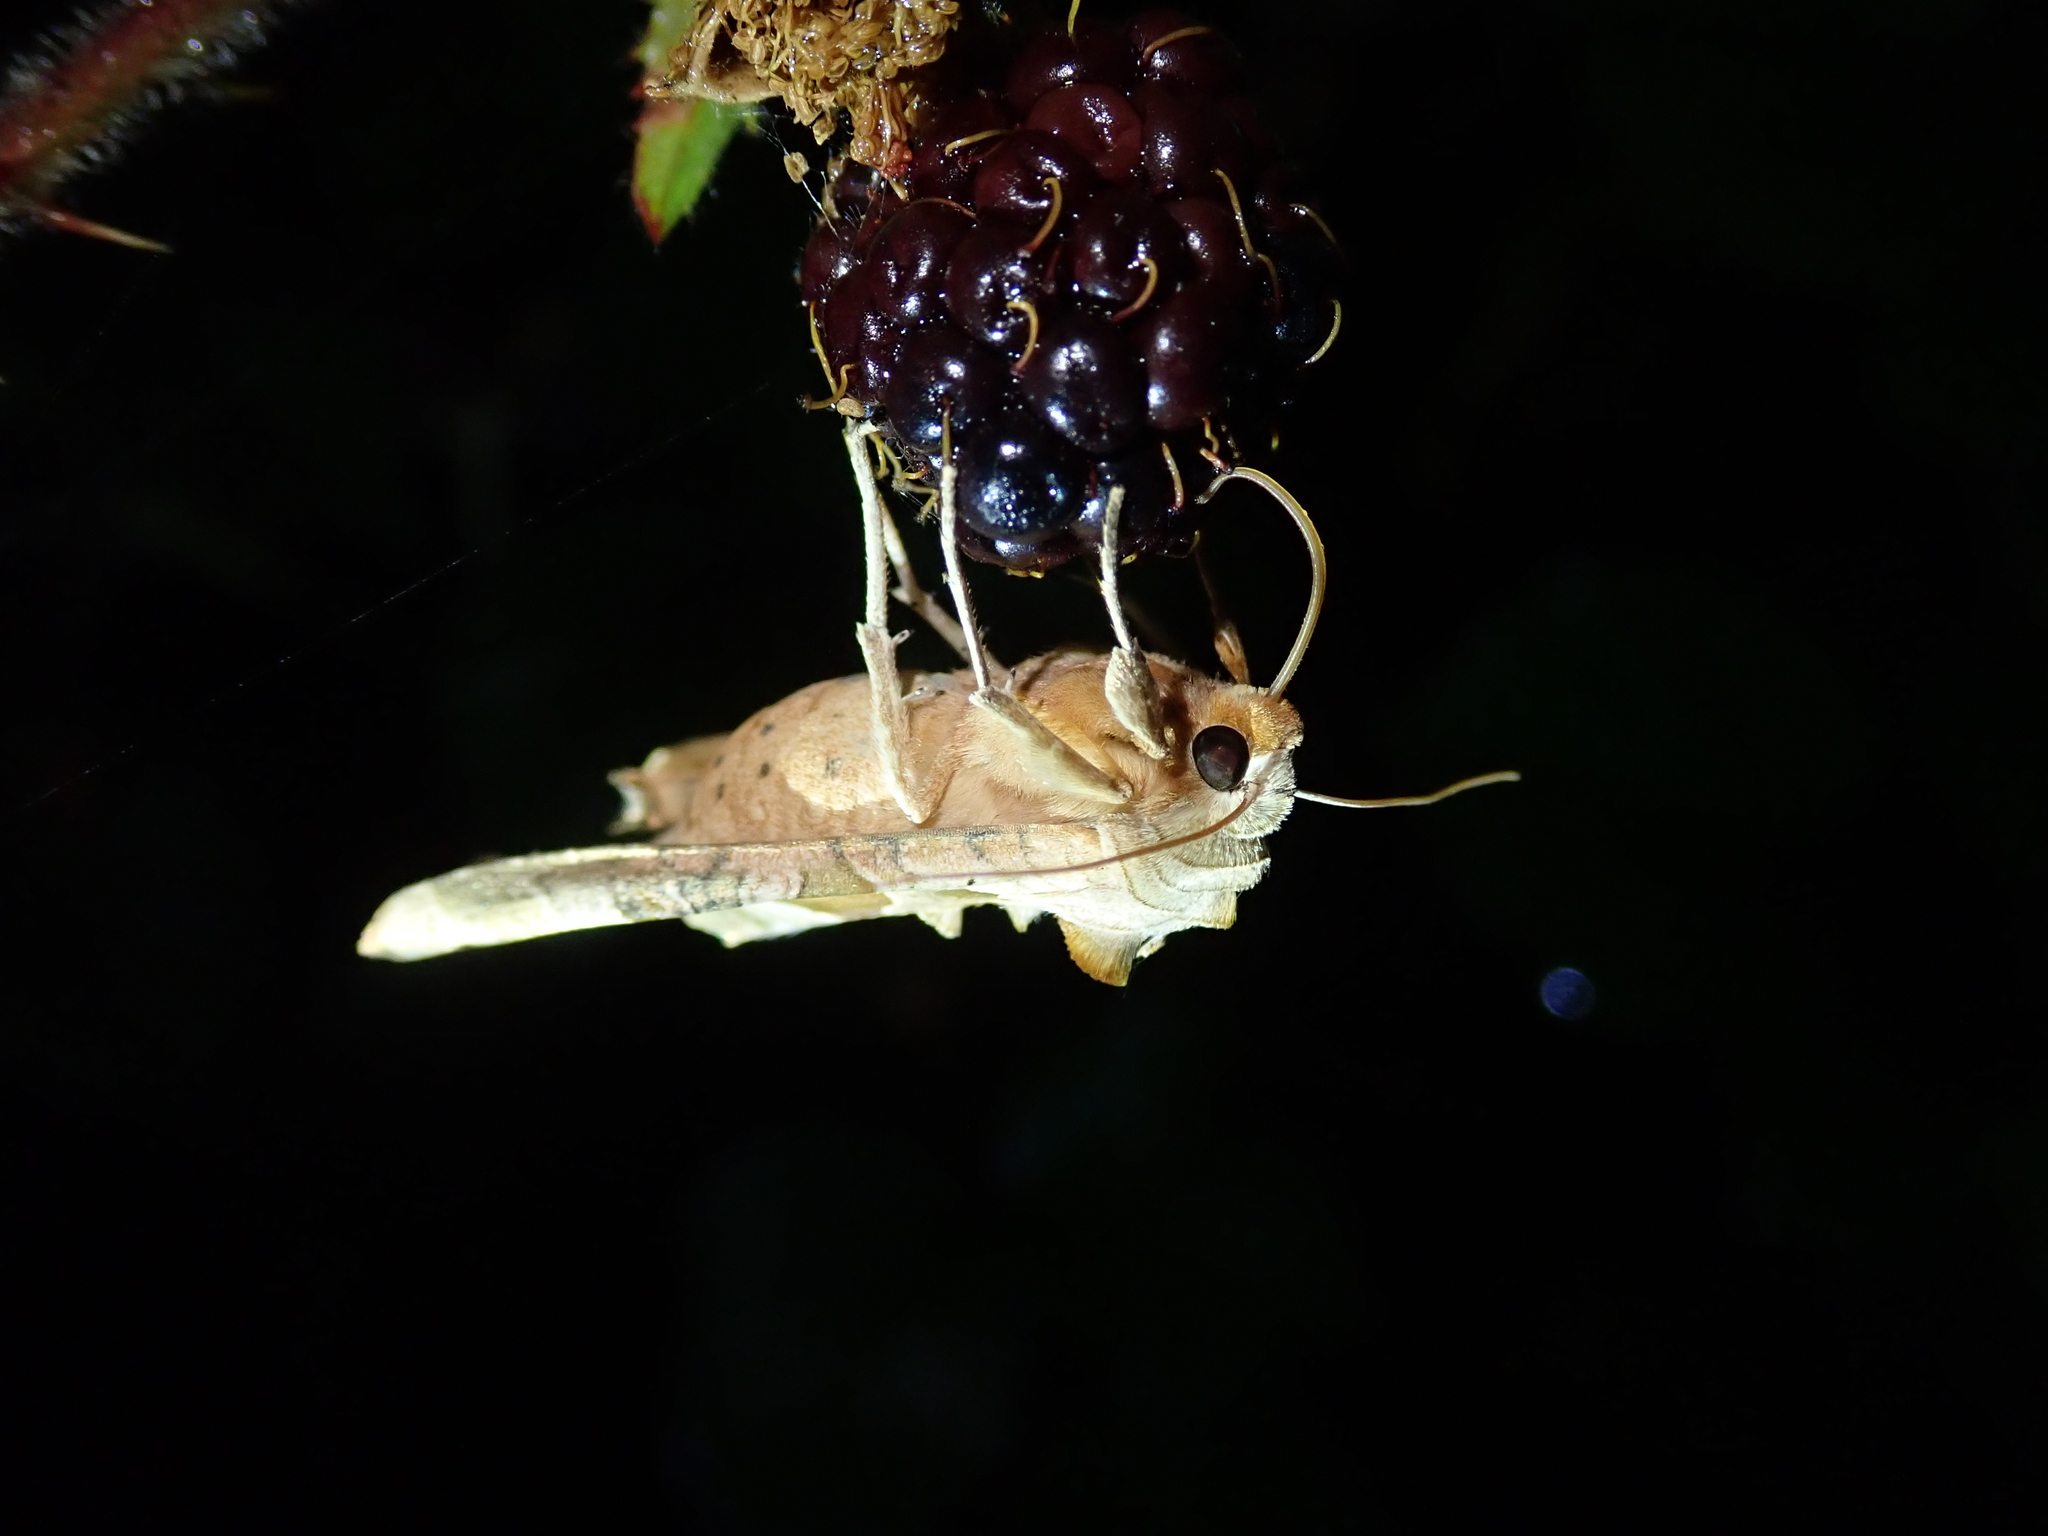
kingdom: Animalia
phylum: Arthropoda
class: Insecta
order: Lepidoptera
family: Noctuidae
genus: Phlogophora
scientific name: Phlogophora meticulosa
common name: Angle shades
